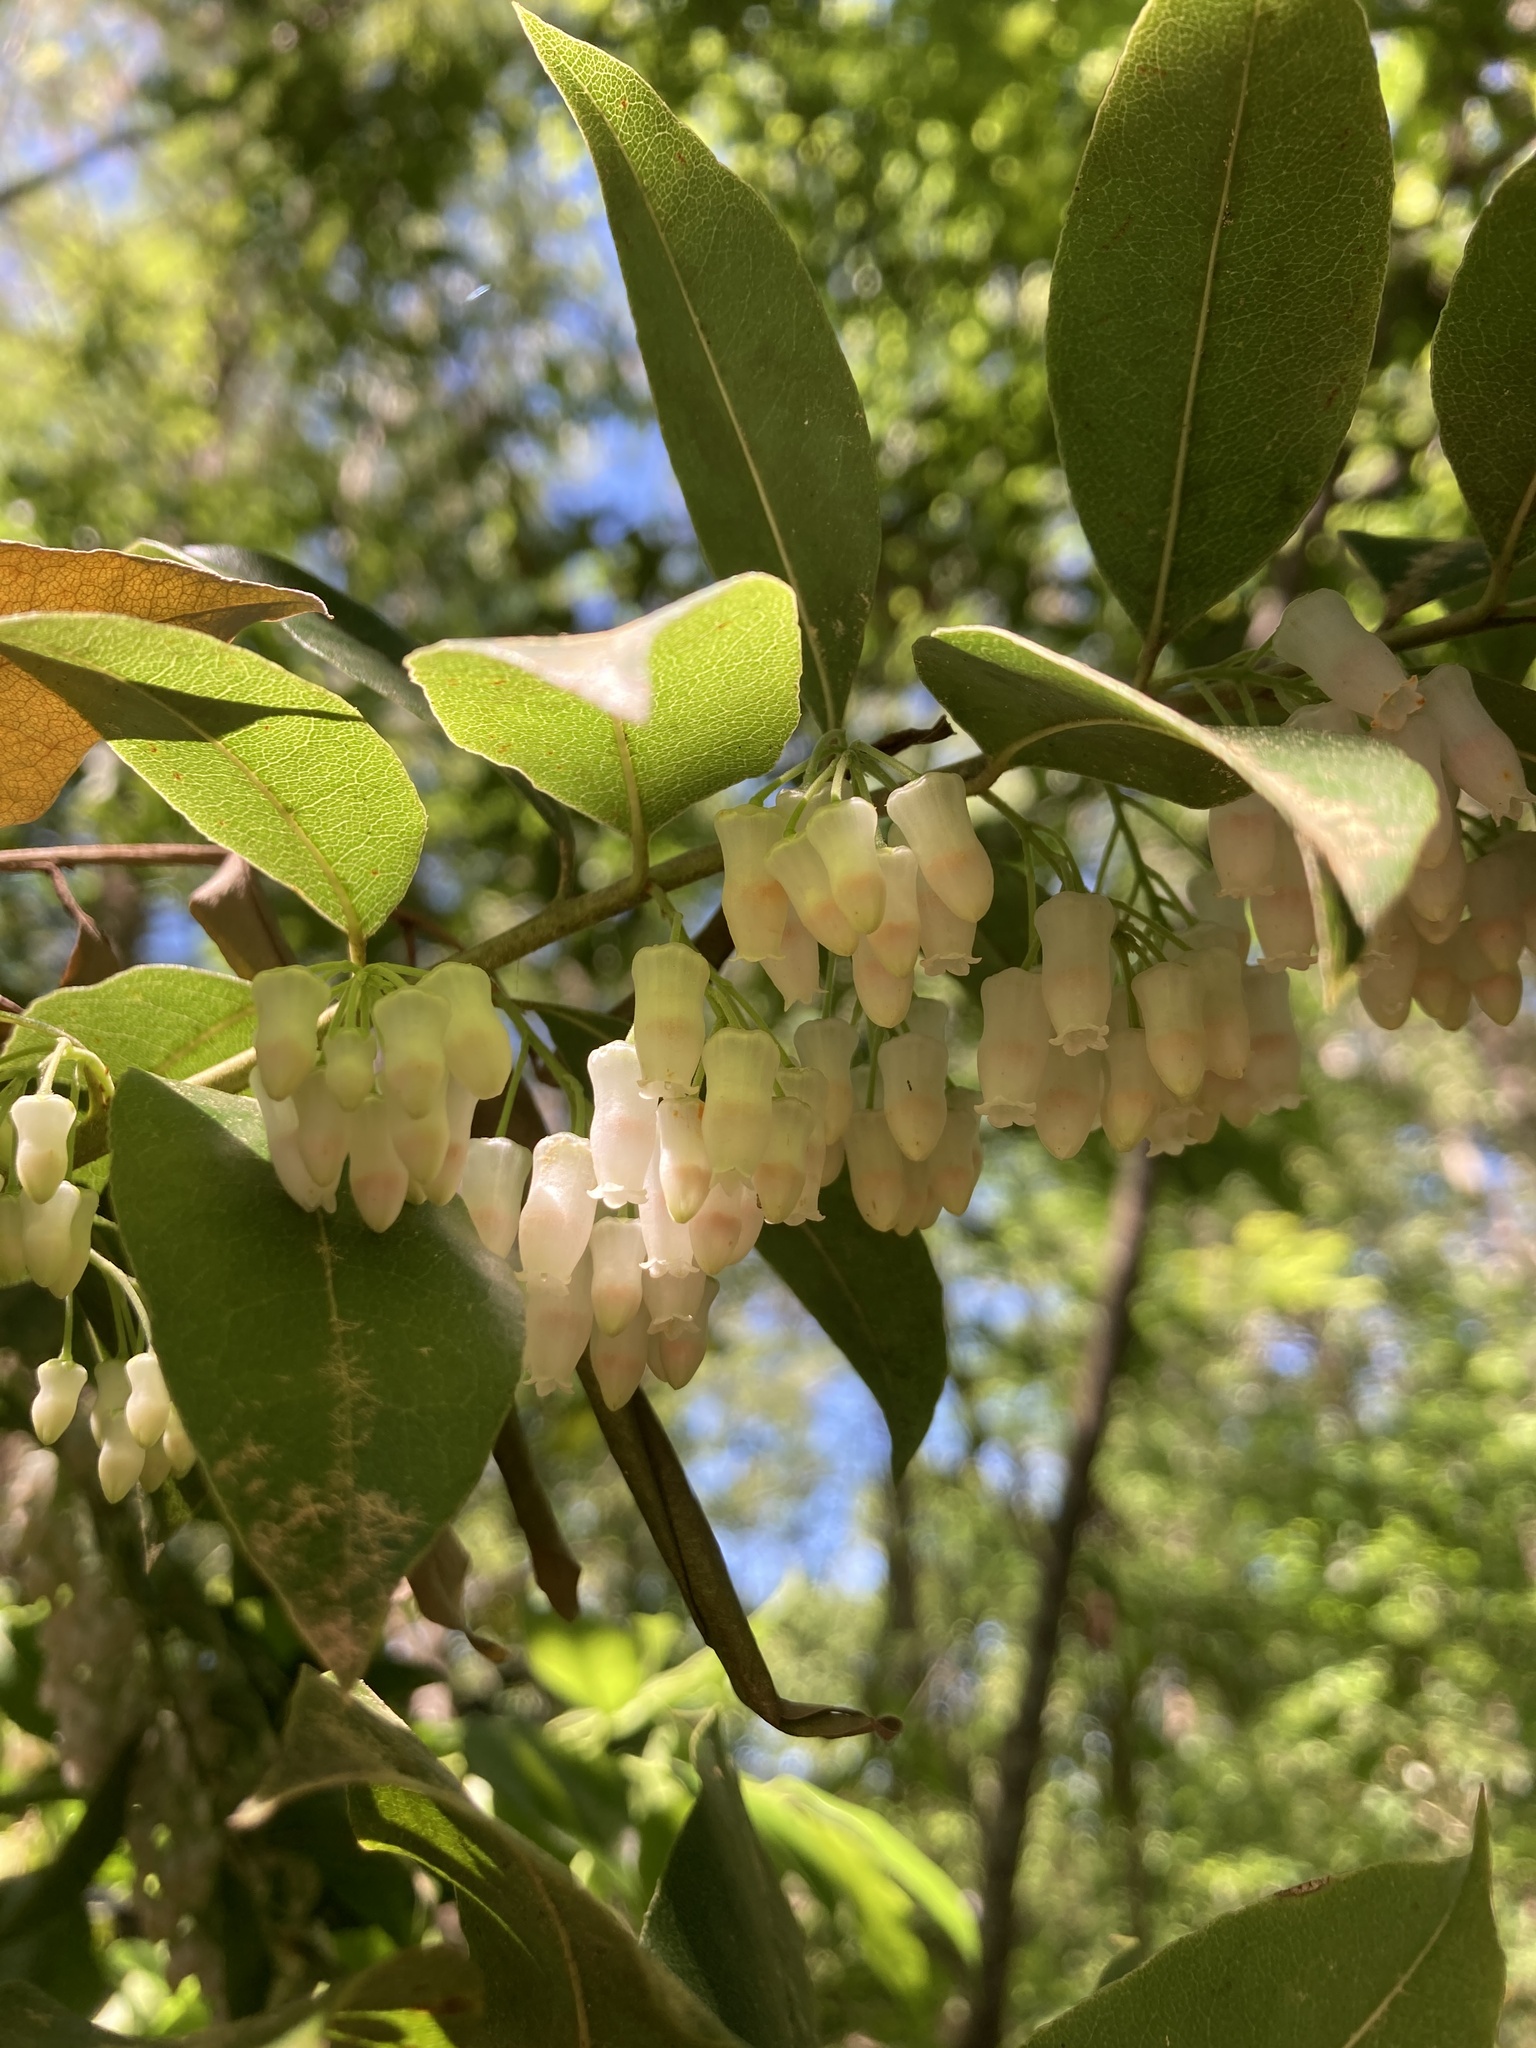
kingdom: Plantae
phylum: Tracheophyta
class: Magnoliopsida
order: Ericales
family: Ericaceae
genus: Agarista
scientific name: Agarista populifolia
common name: Pipeplant
